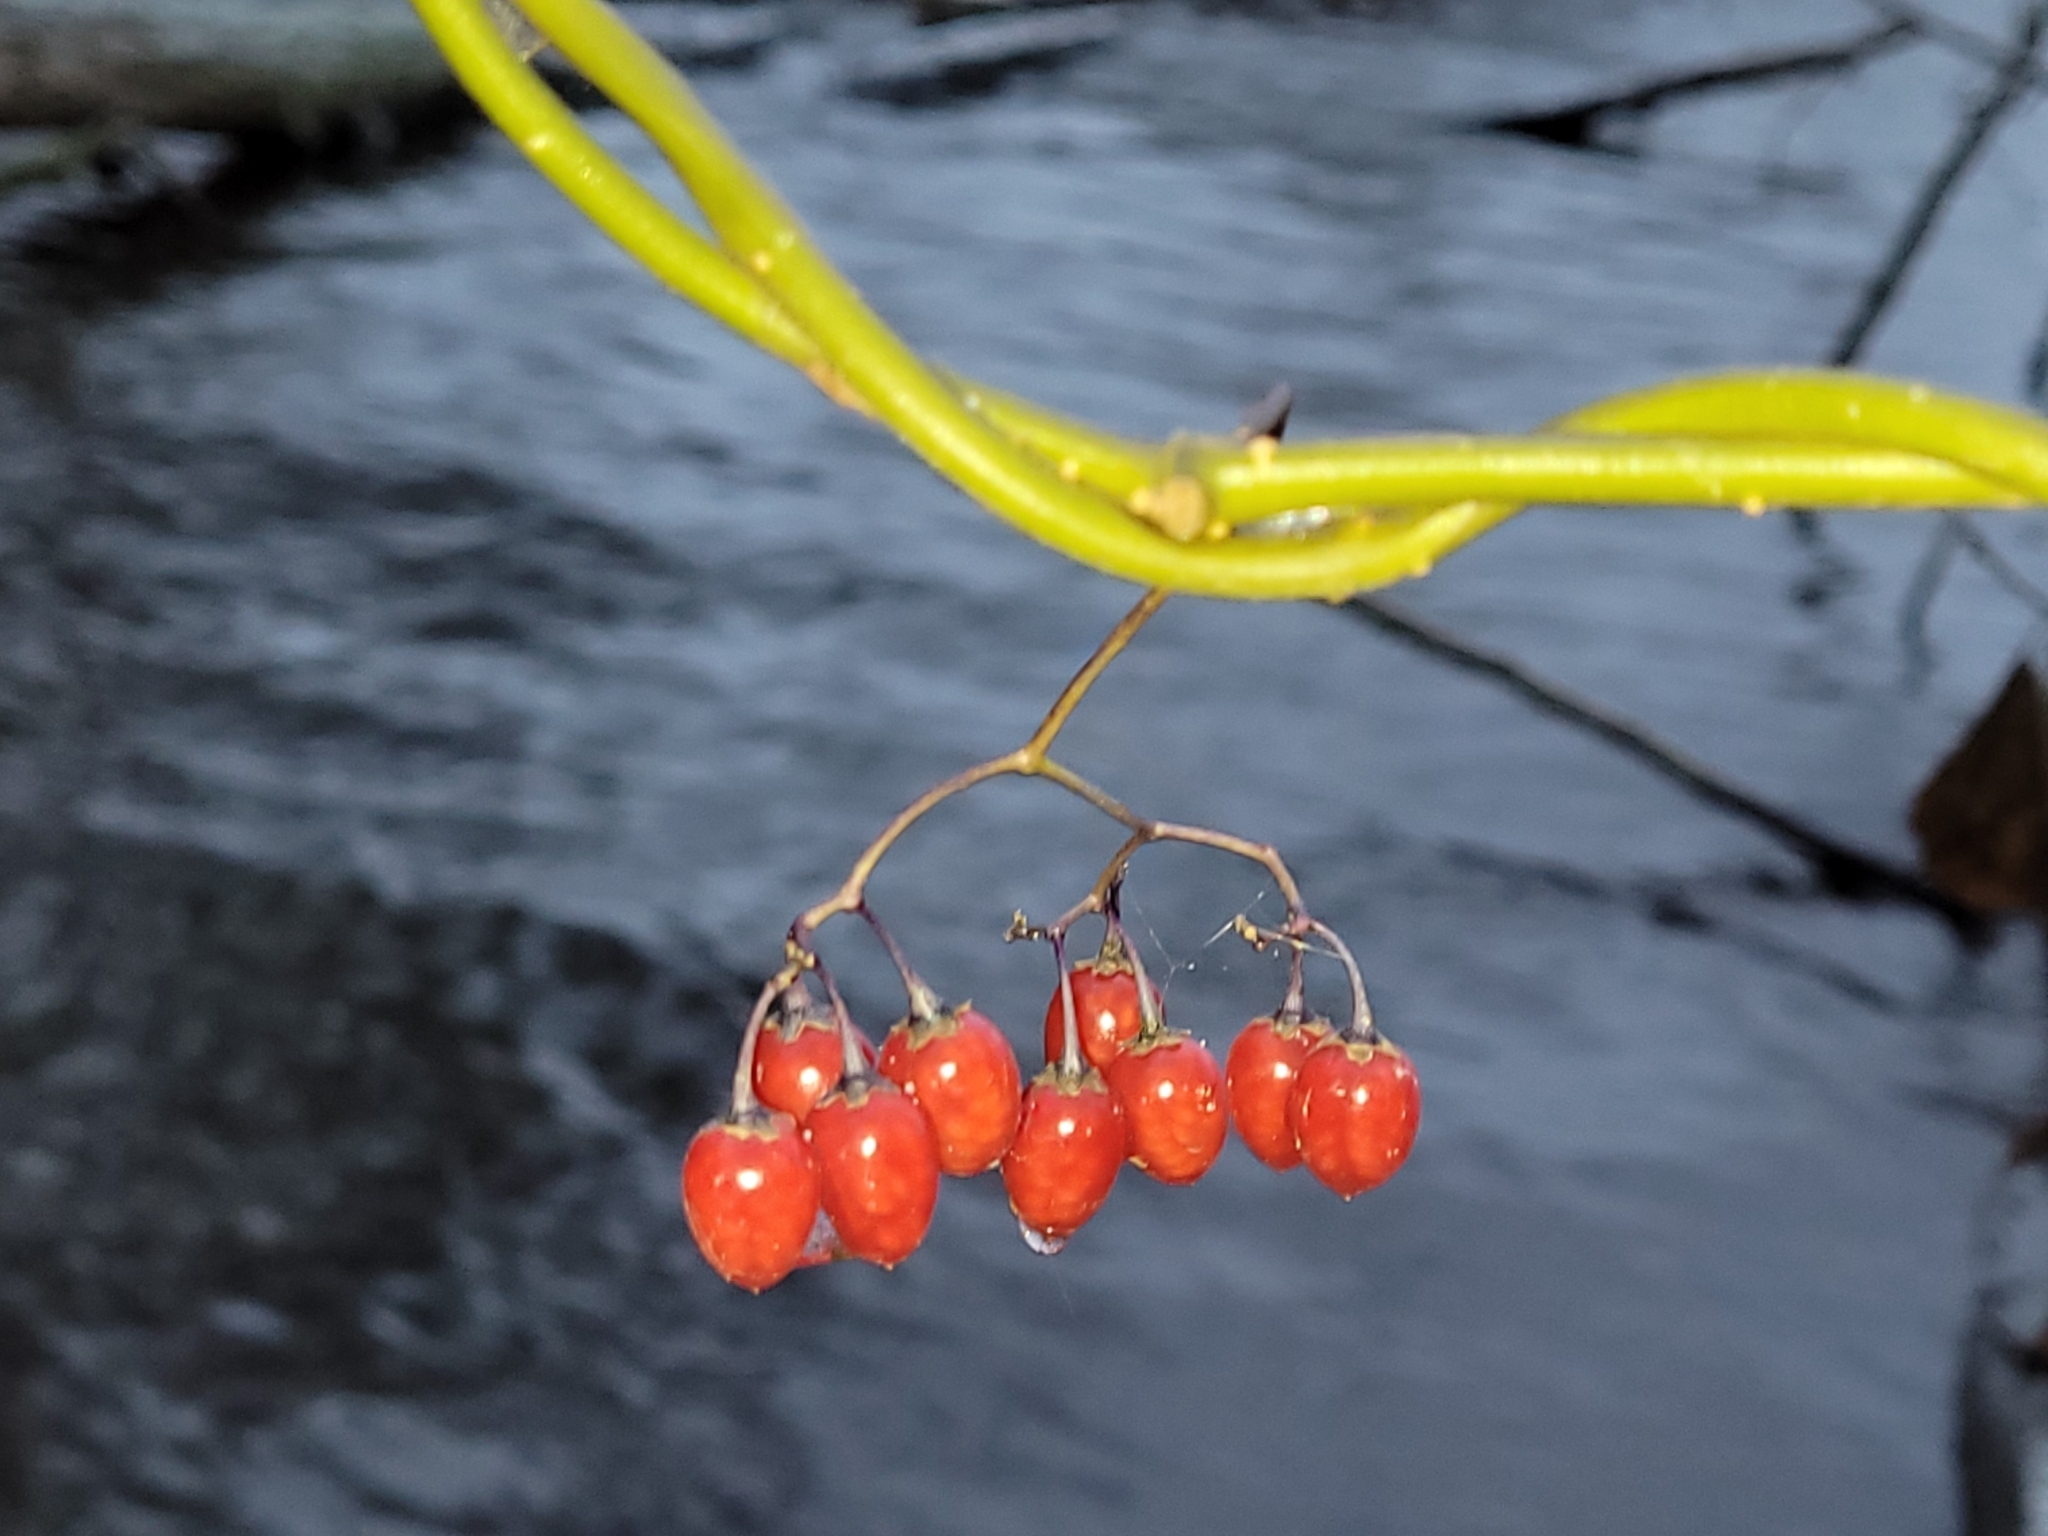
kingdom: Plantae
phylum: Tracheophyta
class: Magnoliopsida
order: Solanales
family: Solanaceae
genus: Solanum
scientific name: Solanum dulcamara
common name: Climbing nightshade
